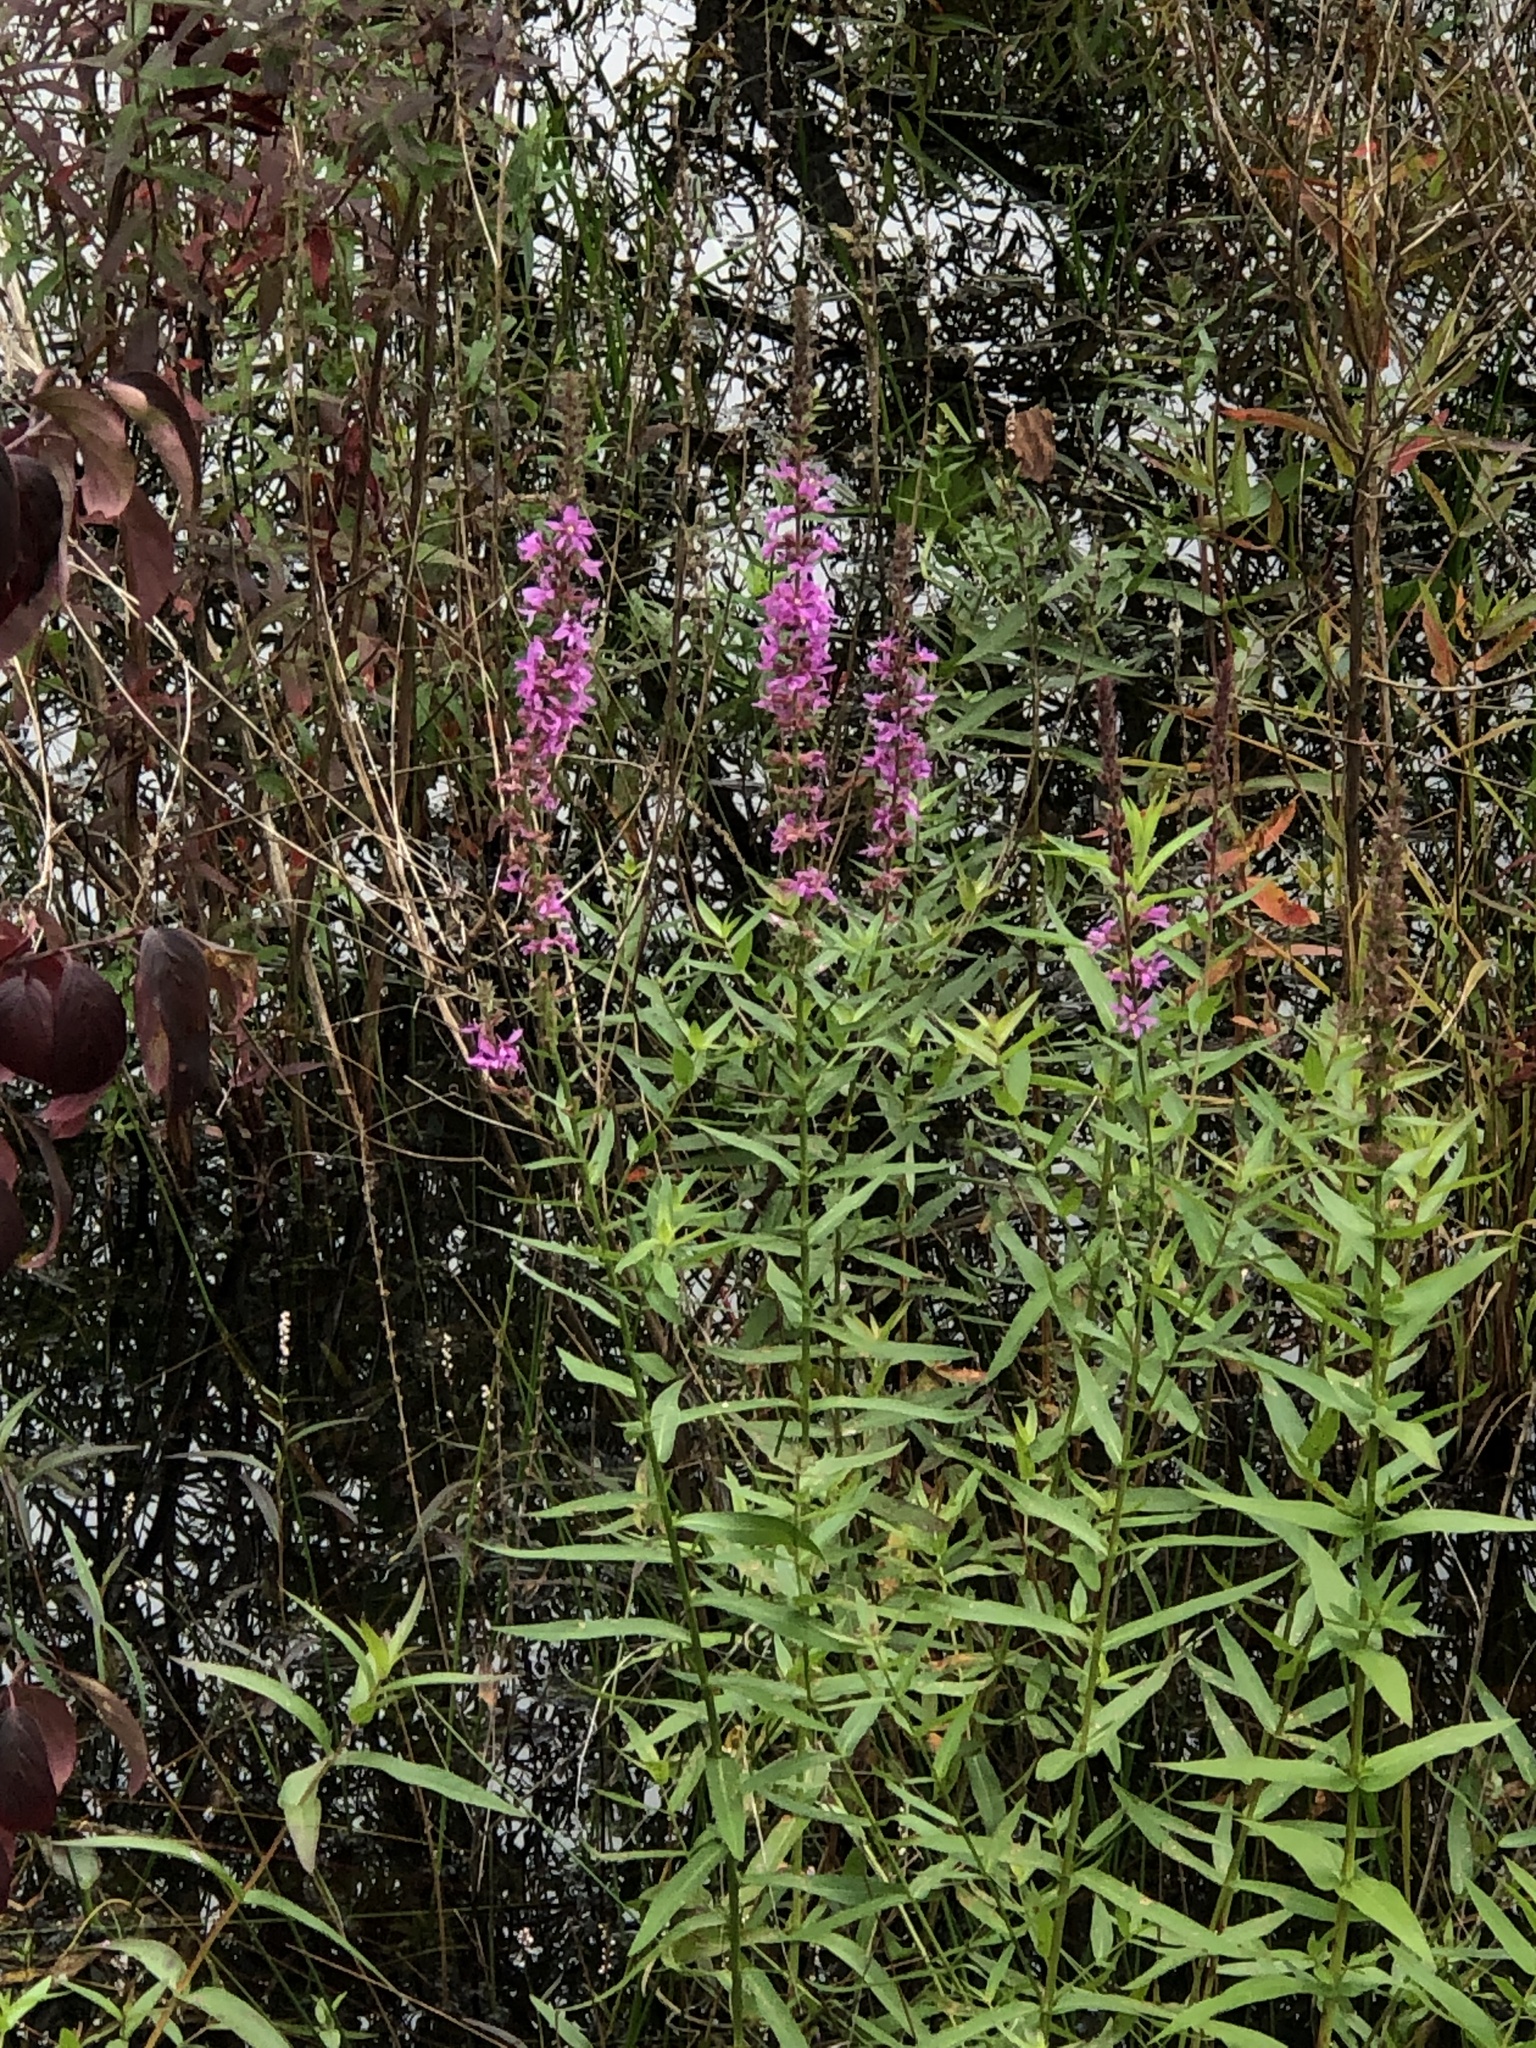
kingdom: Plantae
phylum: Tracheophyta
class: Magnoliopsida
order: Myrtales
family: Lythraceae
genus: Lythrum
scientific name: Lythrum salicaria
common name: Purple loosestrife
